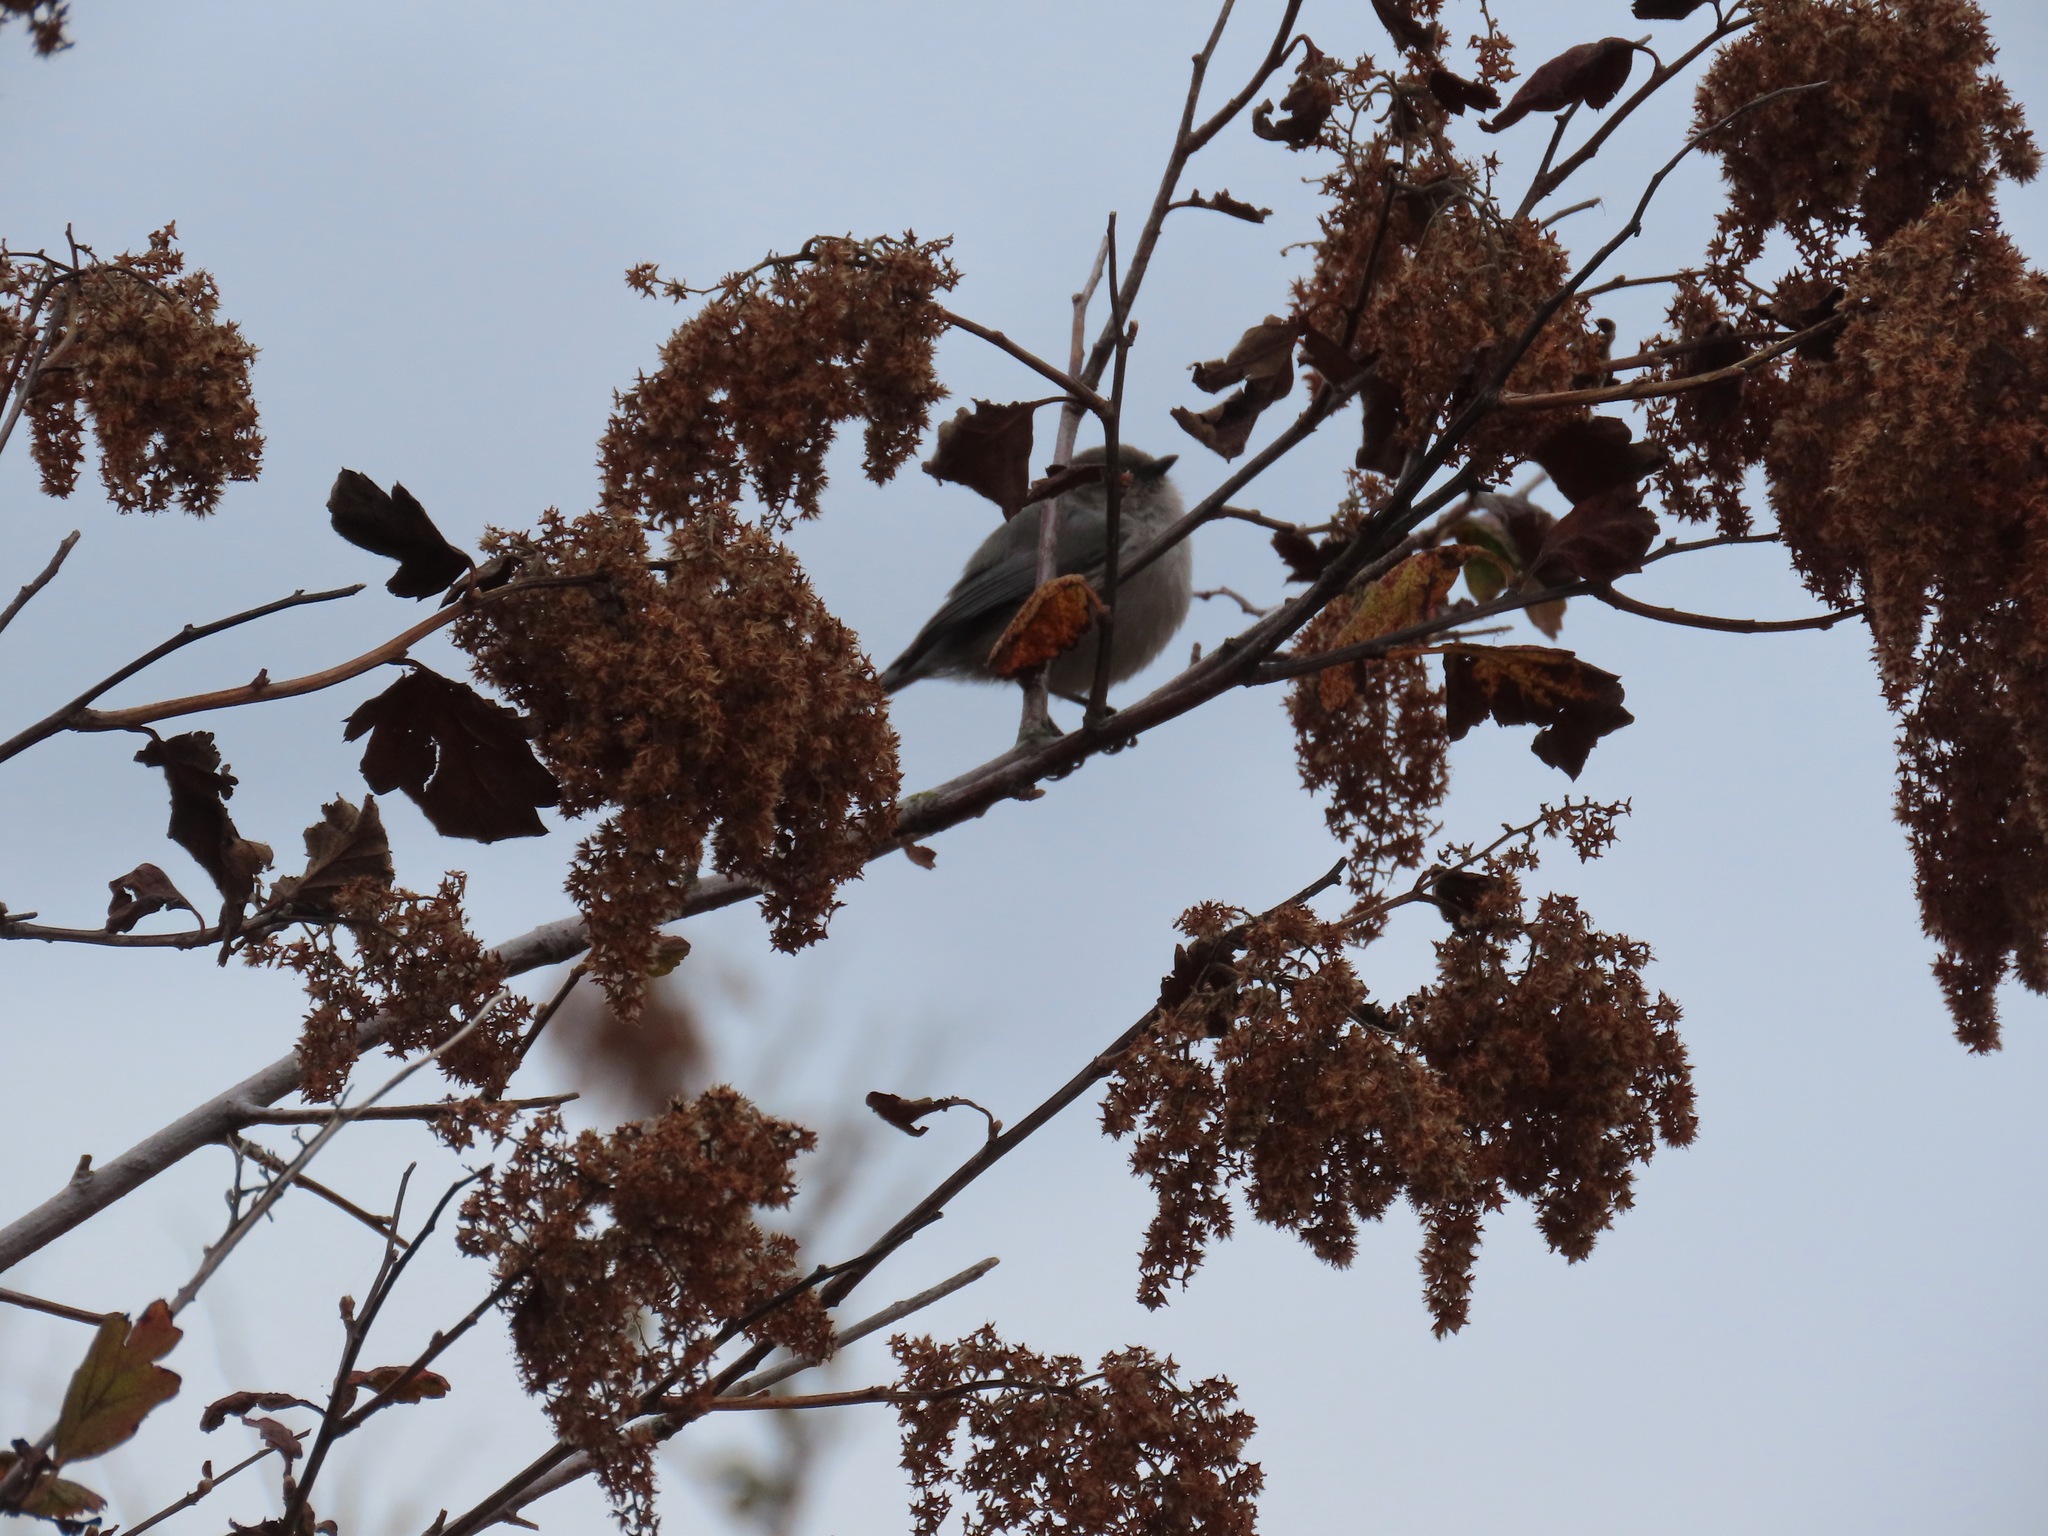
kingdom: Animalia
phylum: Chordata
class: Aves
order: Passeriformes
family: Aegithalidae
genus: Psaltriparus
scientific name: Psaltriparus minimus
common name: American bushtit
